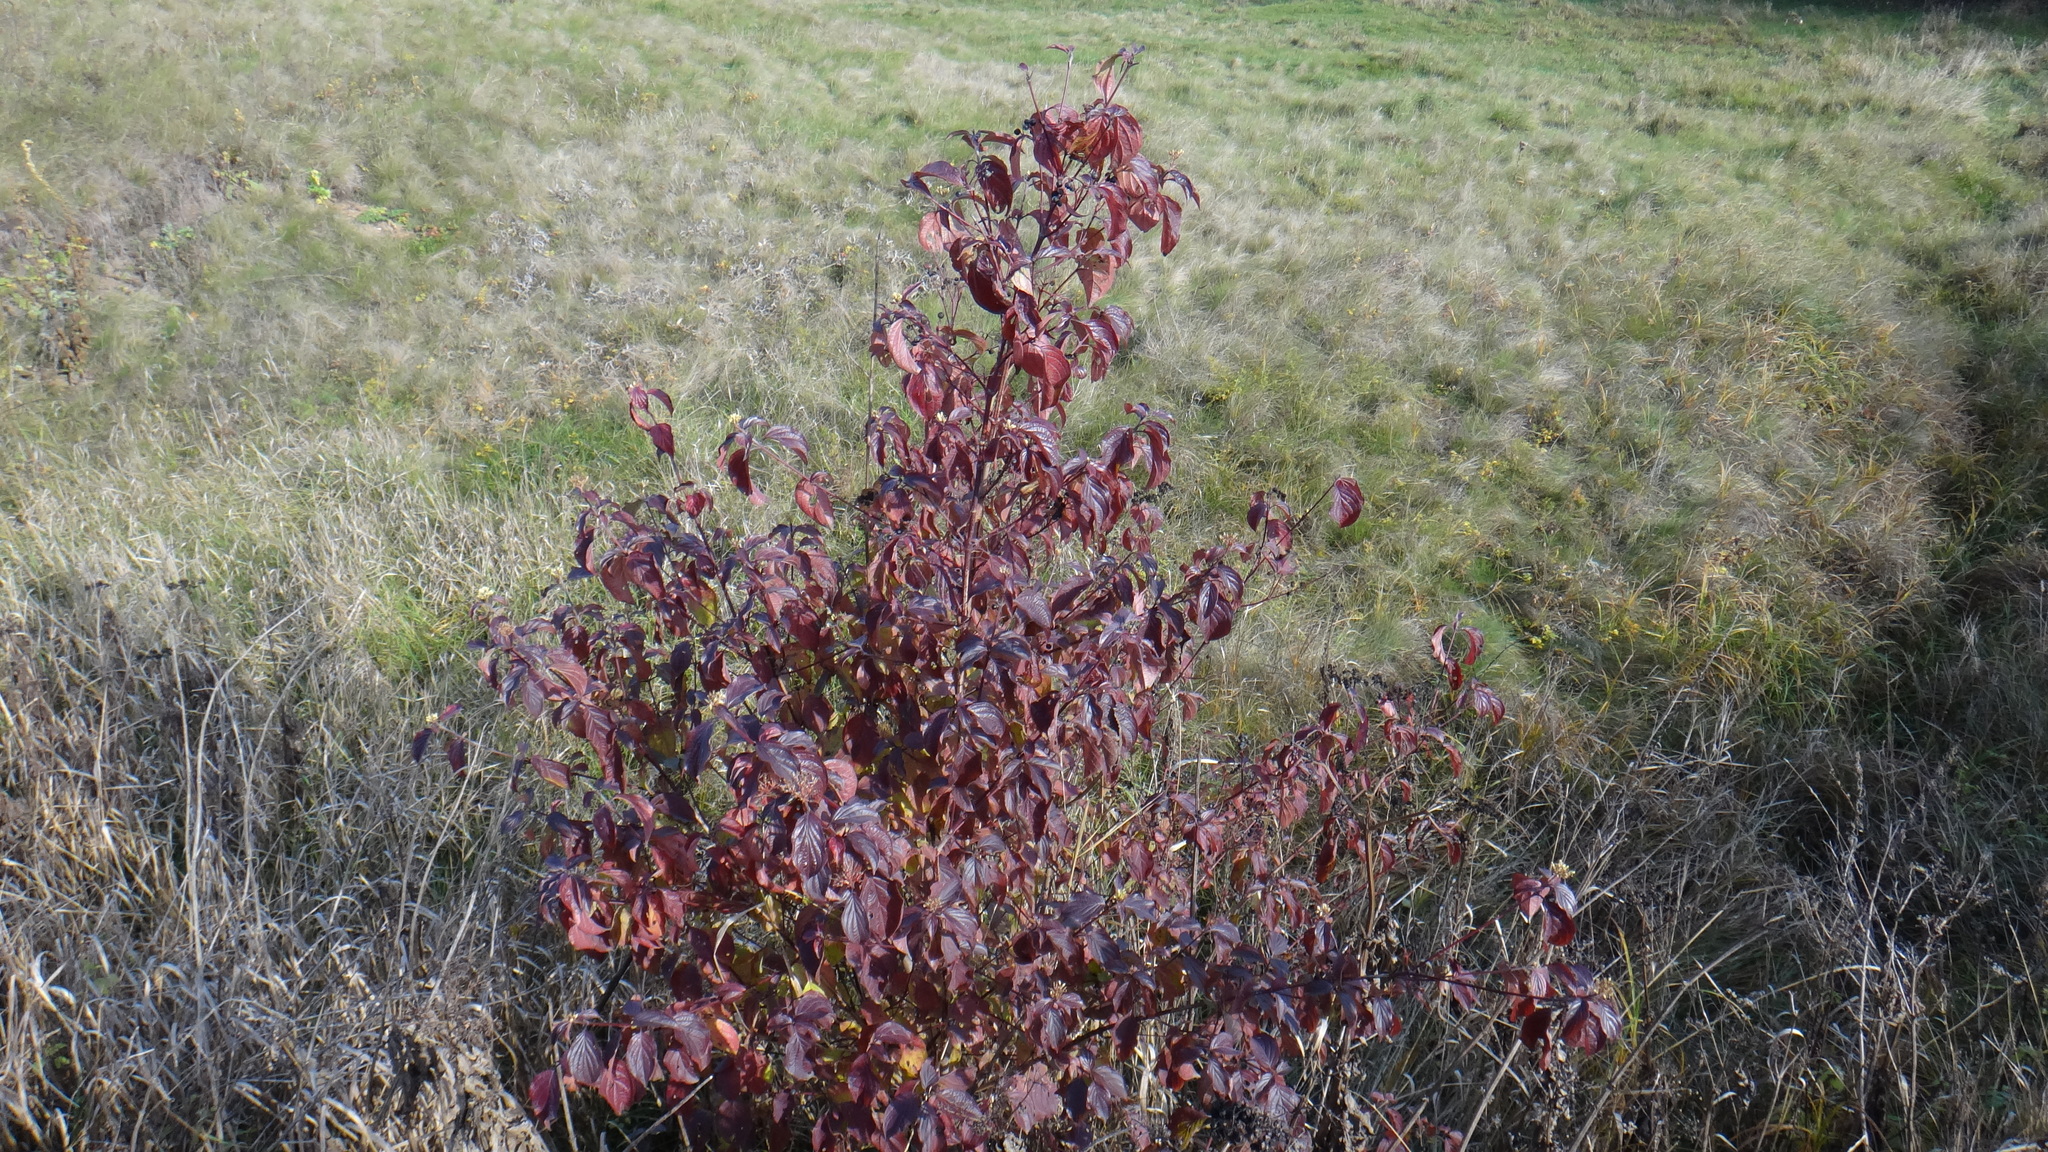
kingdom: Plantae
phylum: Tracheophyta
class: Magnoliopsida
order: Cornales
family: Cornaceae
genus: Cornus
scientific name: Cornus sanguinea
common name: Dogwood
